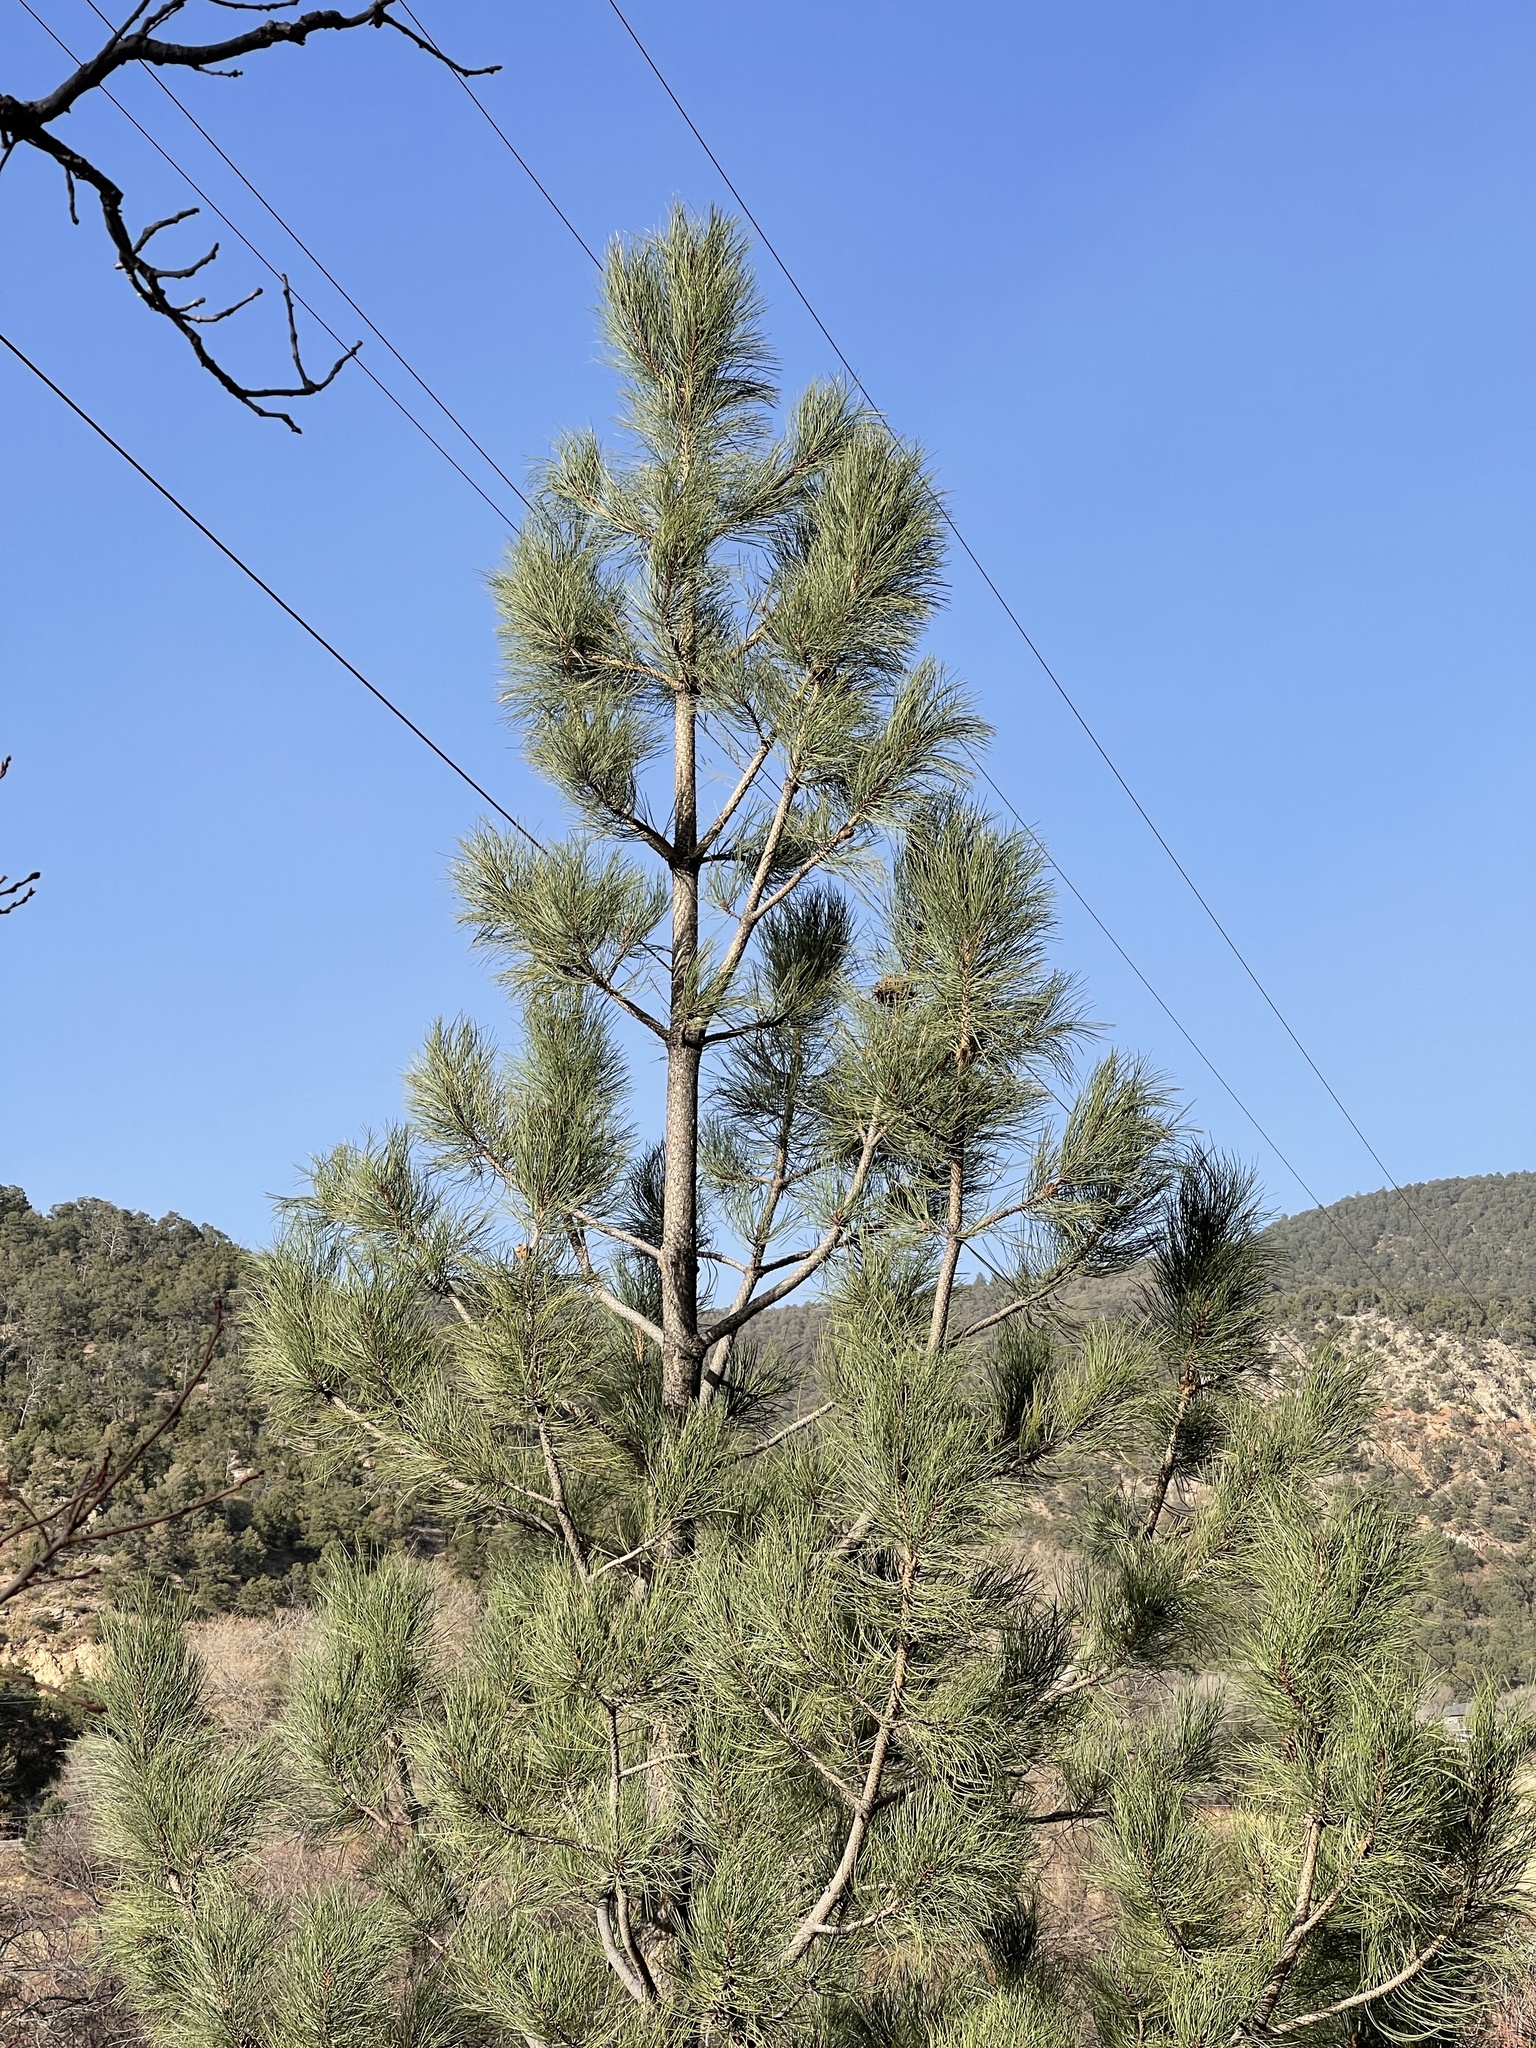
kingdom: Plantae
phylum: Tracheophyta
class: Pinopsida
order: Pinales
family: Pinaceae
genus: Pinus
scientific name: Pinus ponderosa
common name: Western yellow-pine
